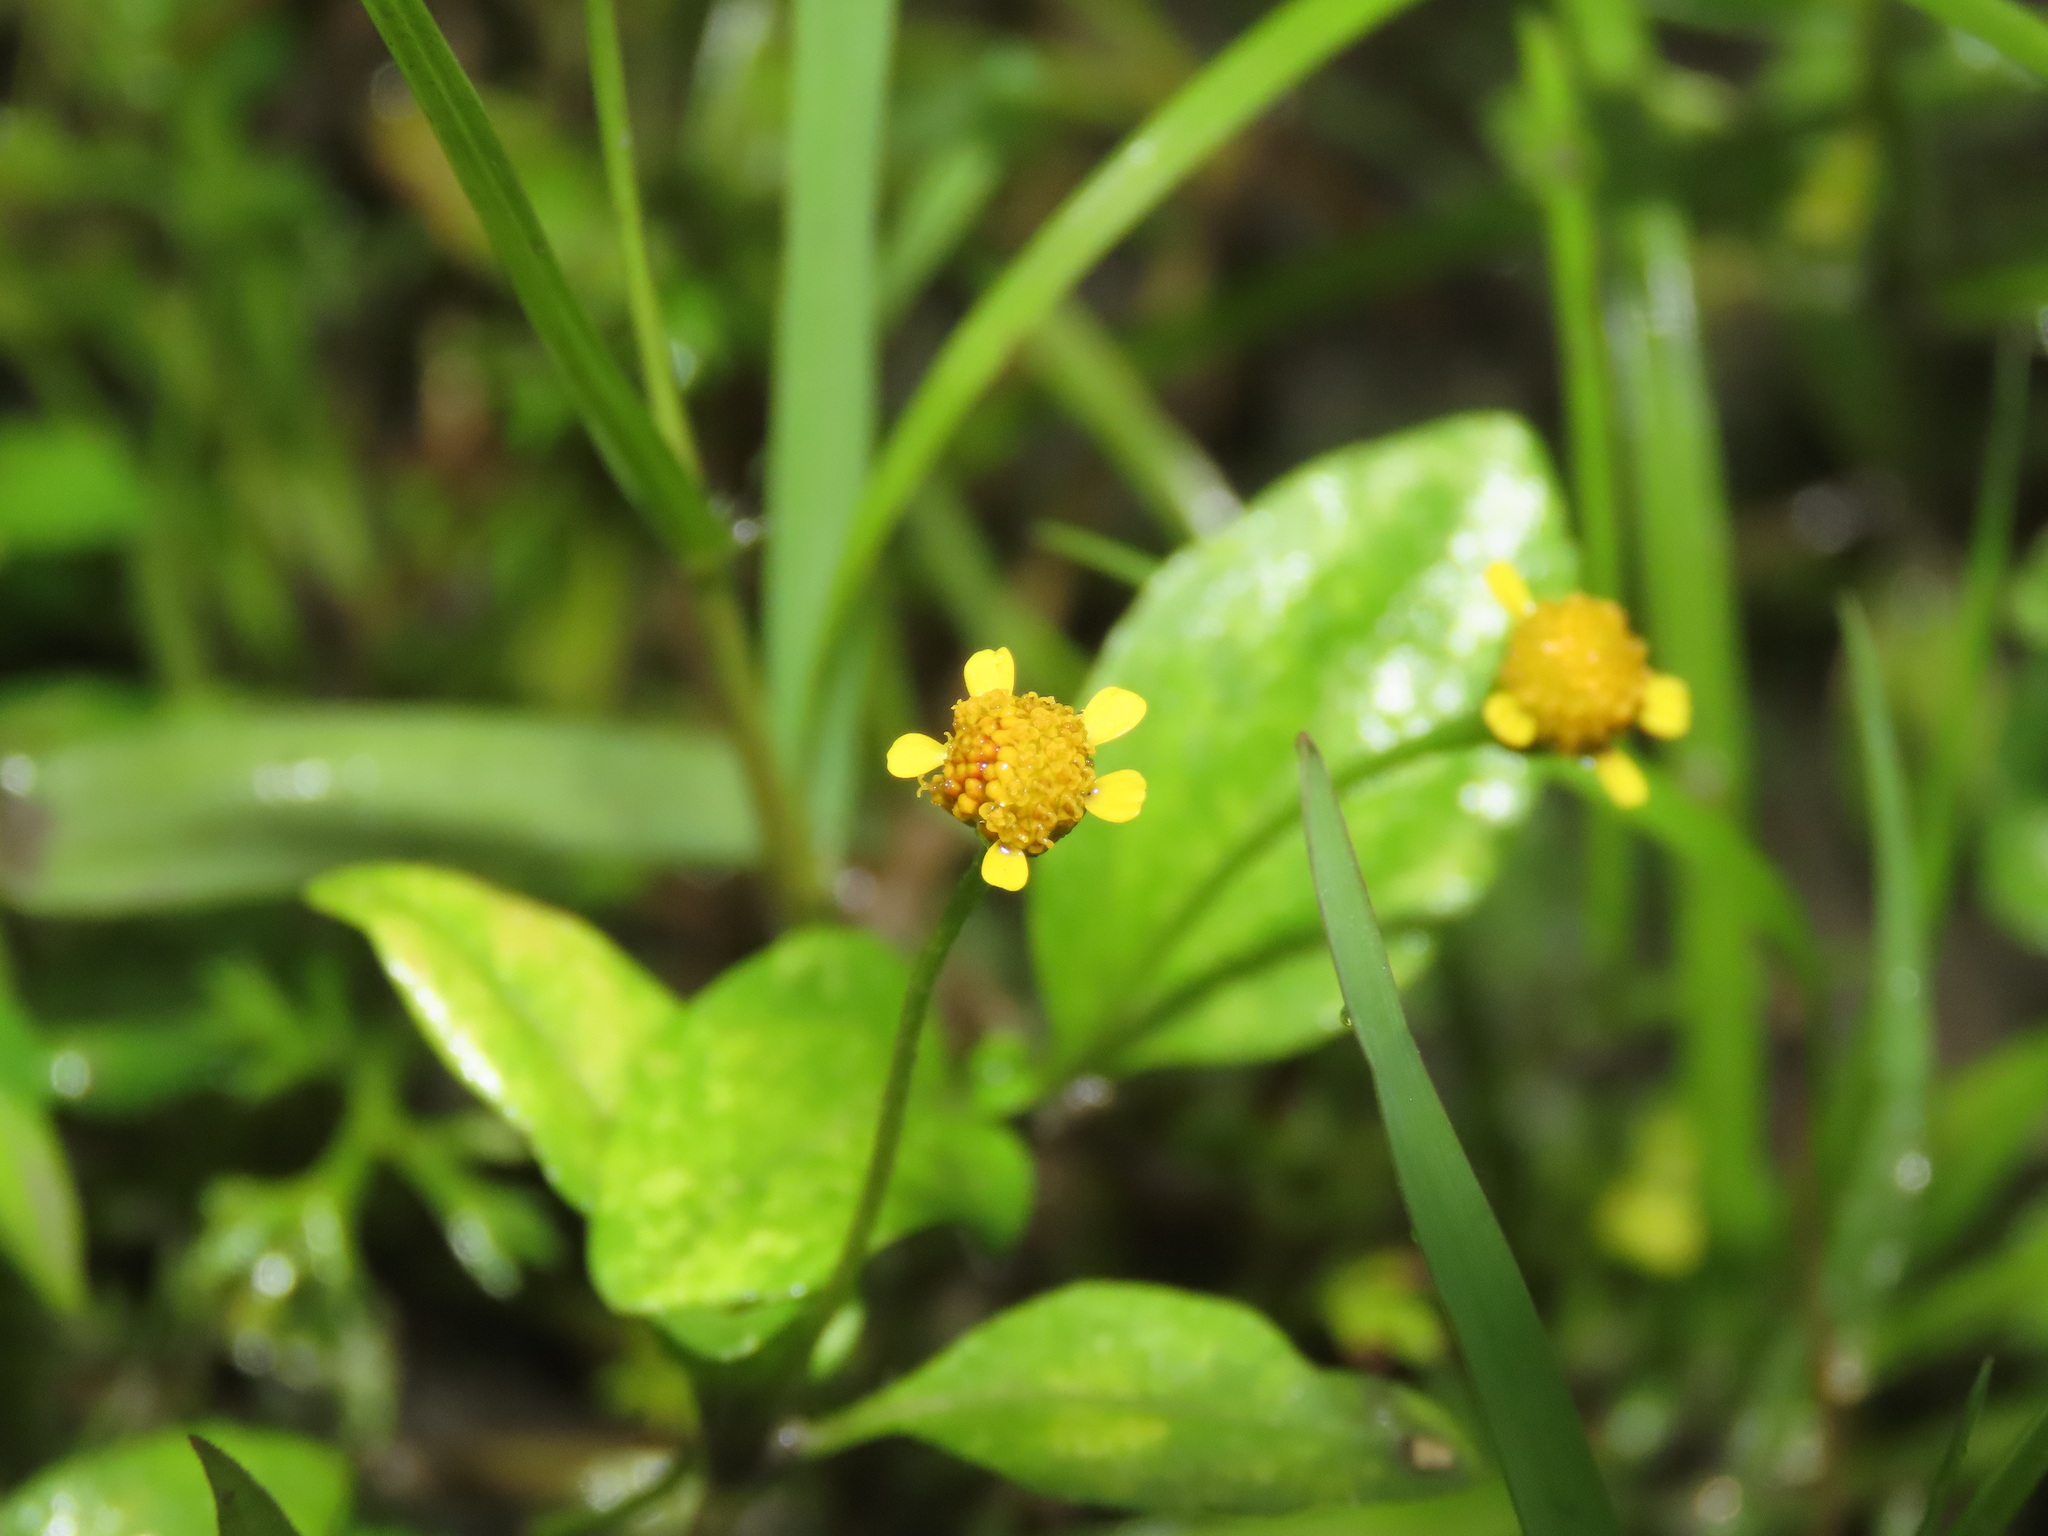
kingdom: Plantae
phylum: Tracheophyta
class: Magnoliopsida
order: Asterales
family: Asteraceae
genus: Acmella
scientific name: Acmella uliginosa
